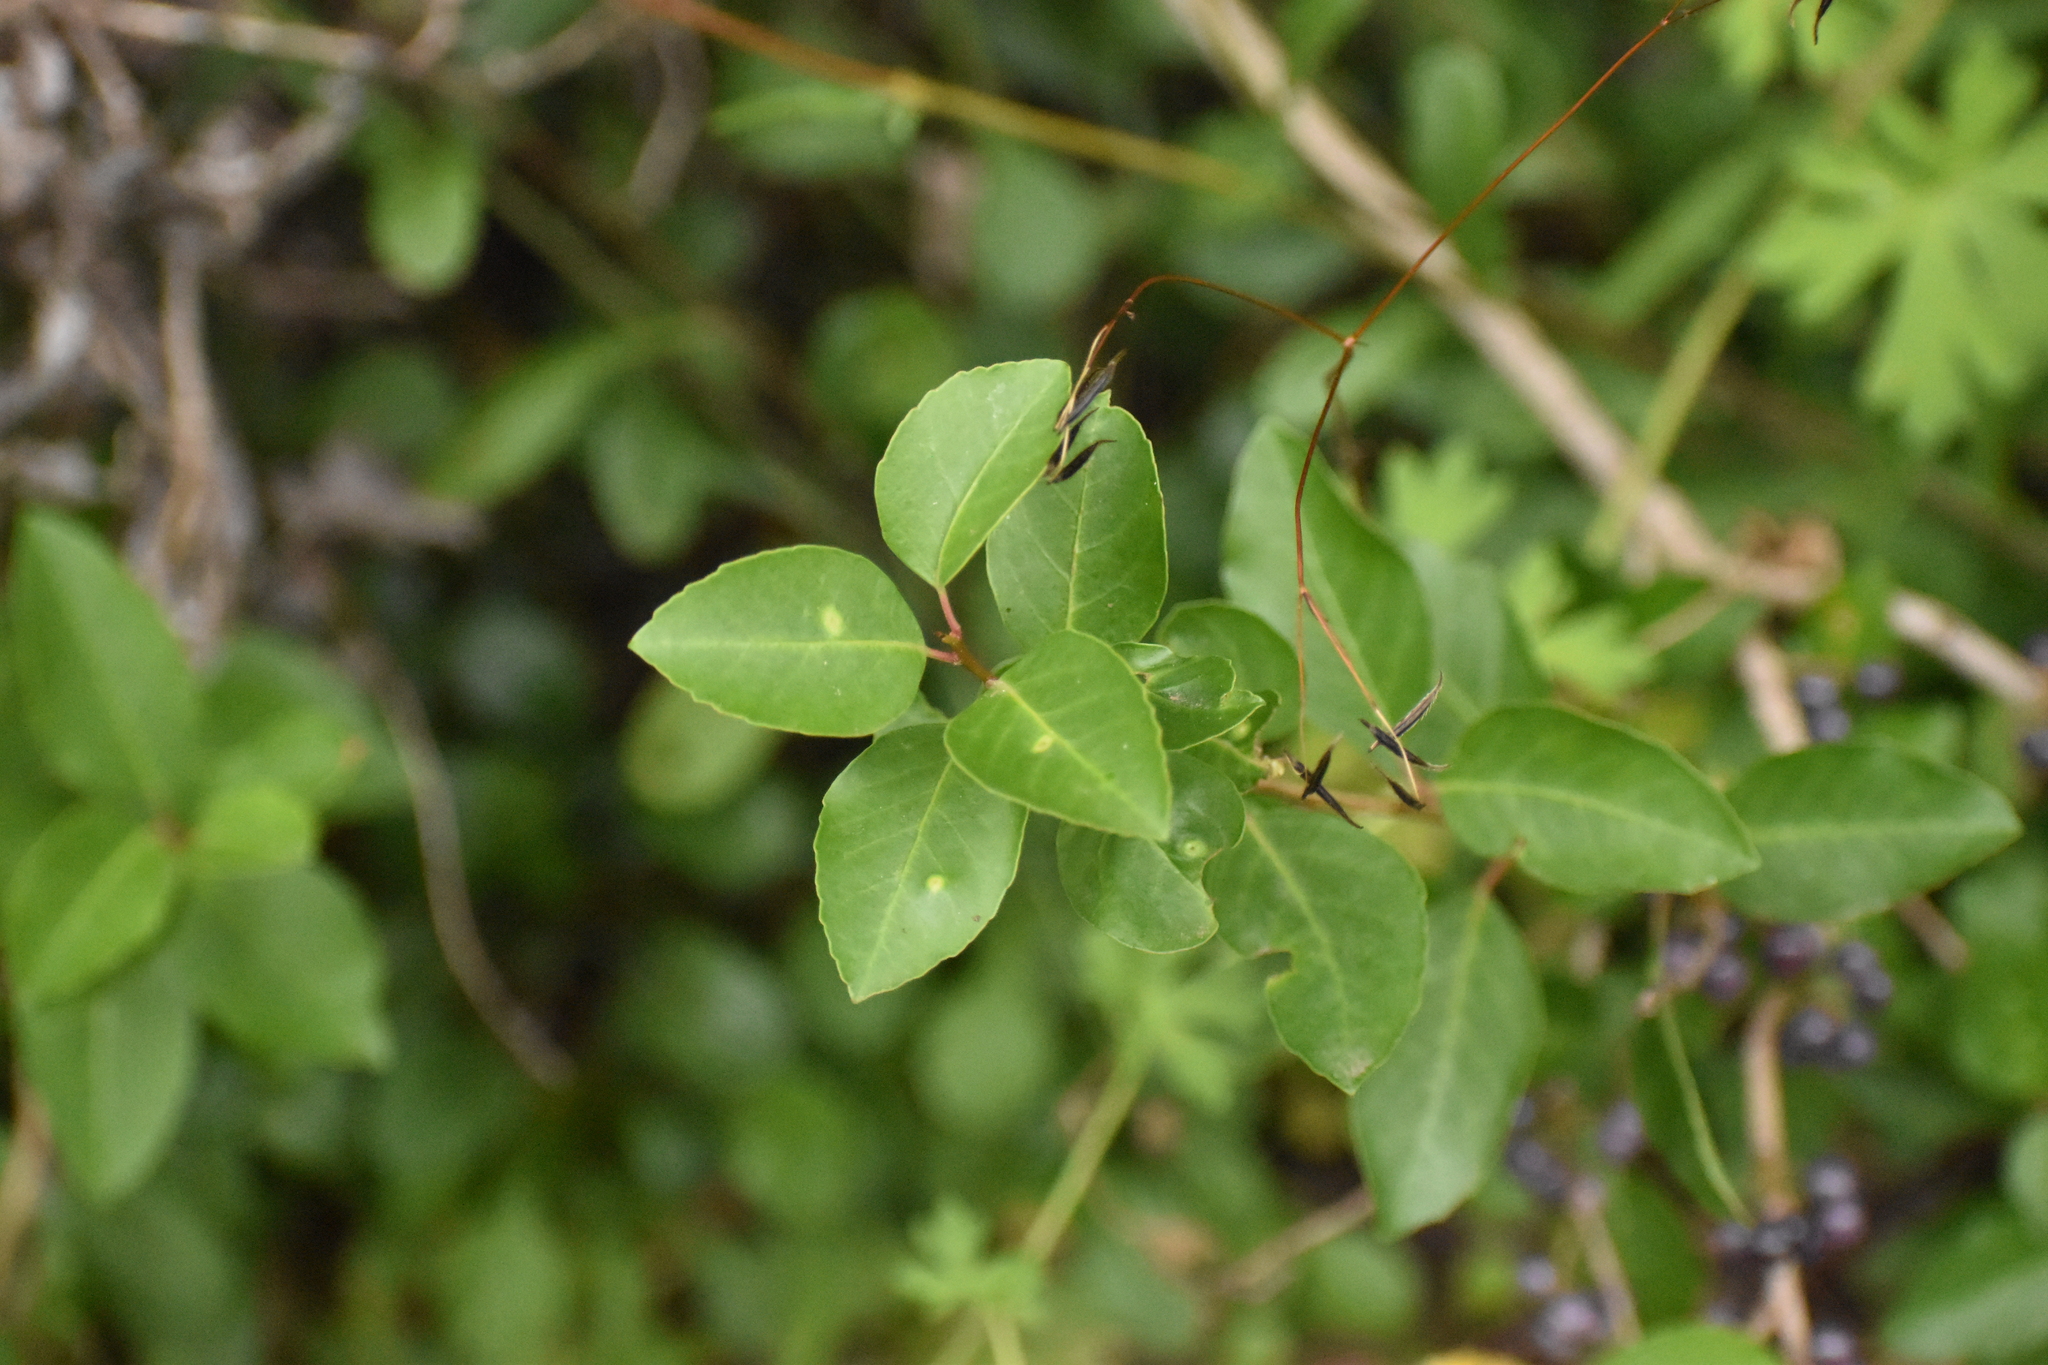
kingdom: Plantae
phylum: Tracheophyta
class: Magnoliopsida
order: Sapindales
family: Anacardiaceae
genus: Schinus
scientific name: Schinus patagonica
